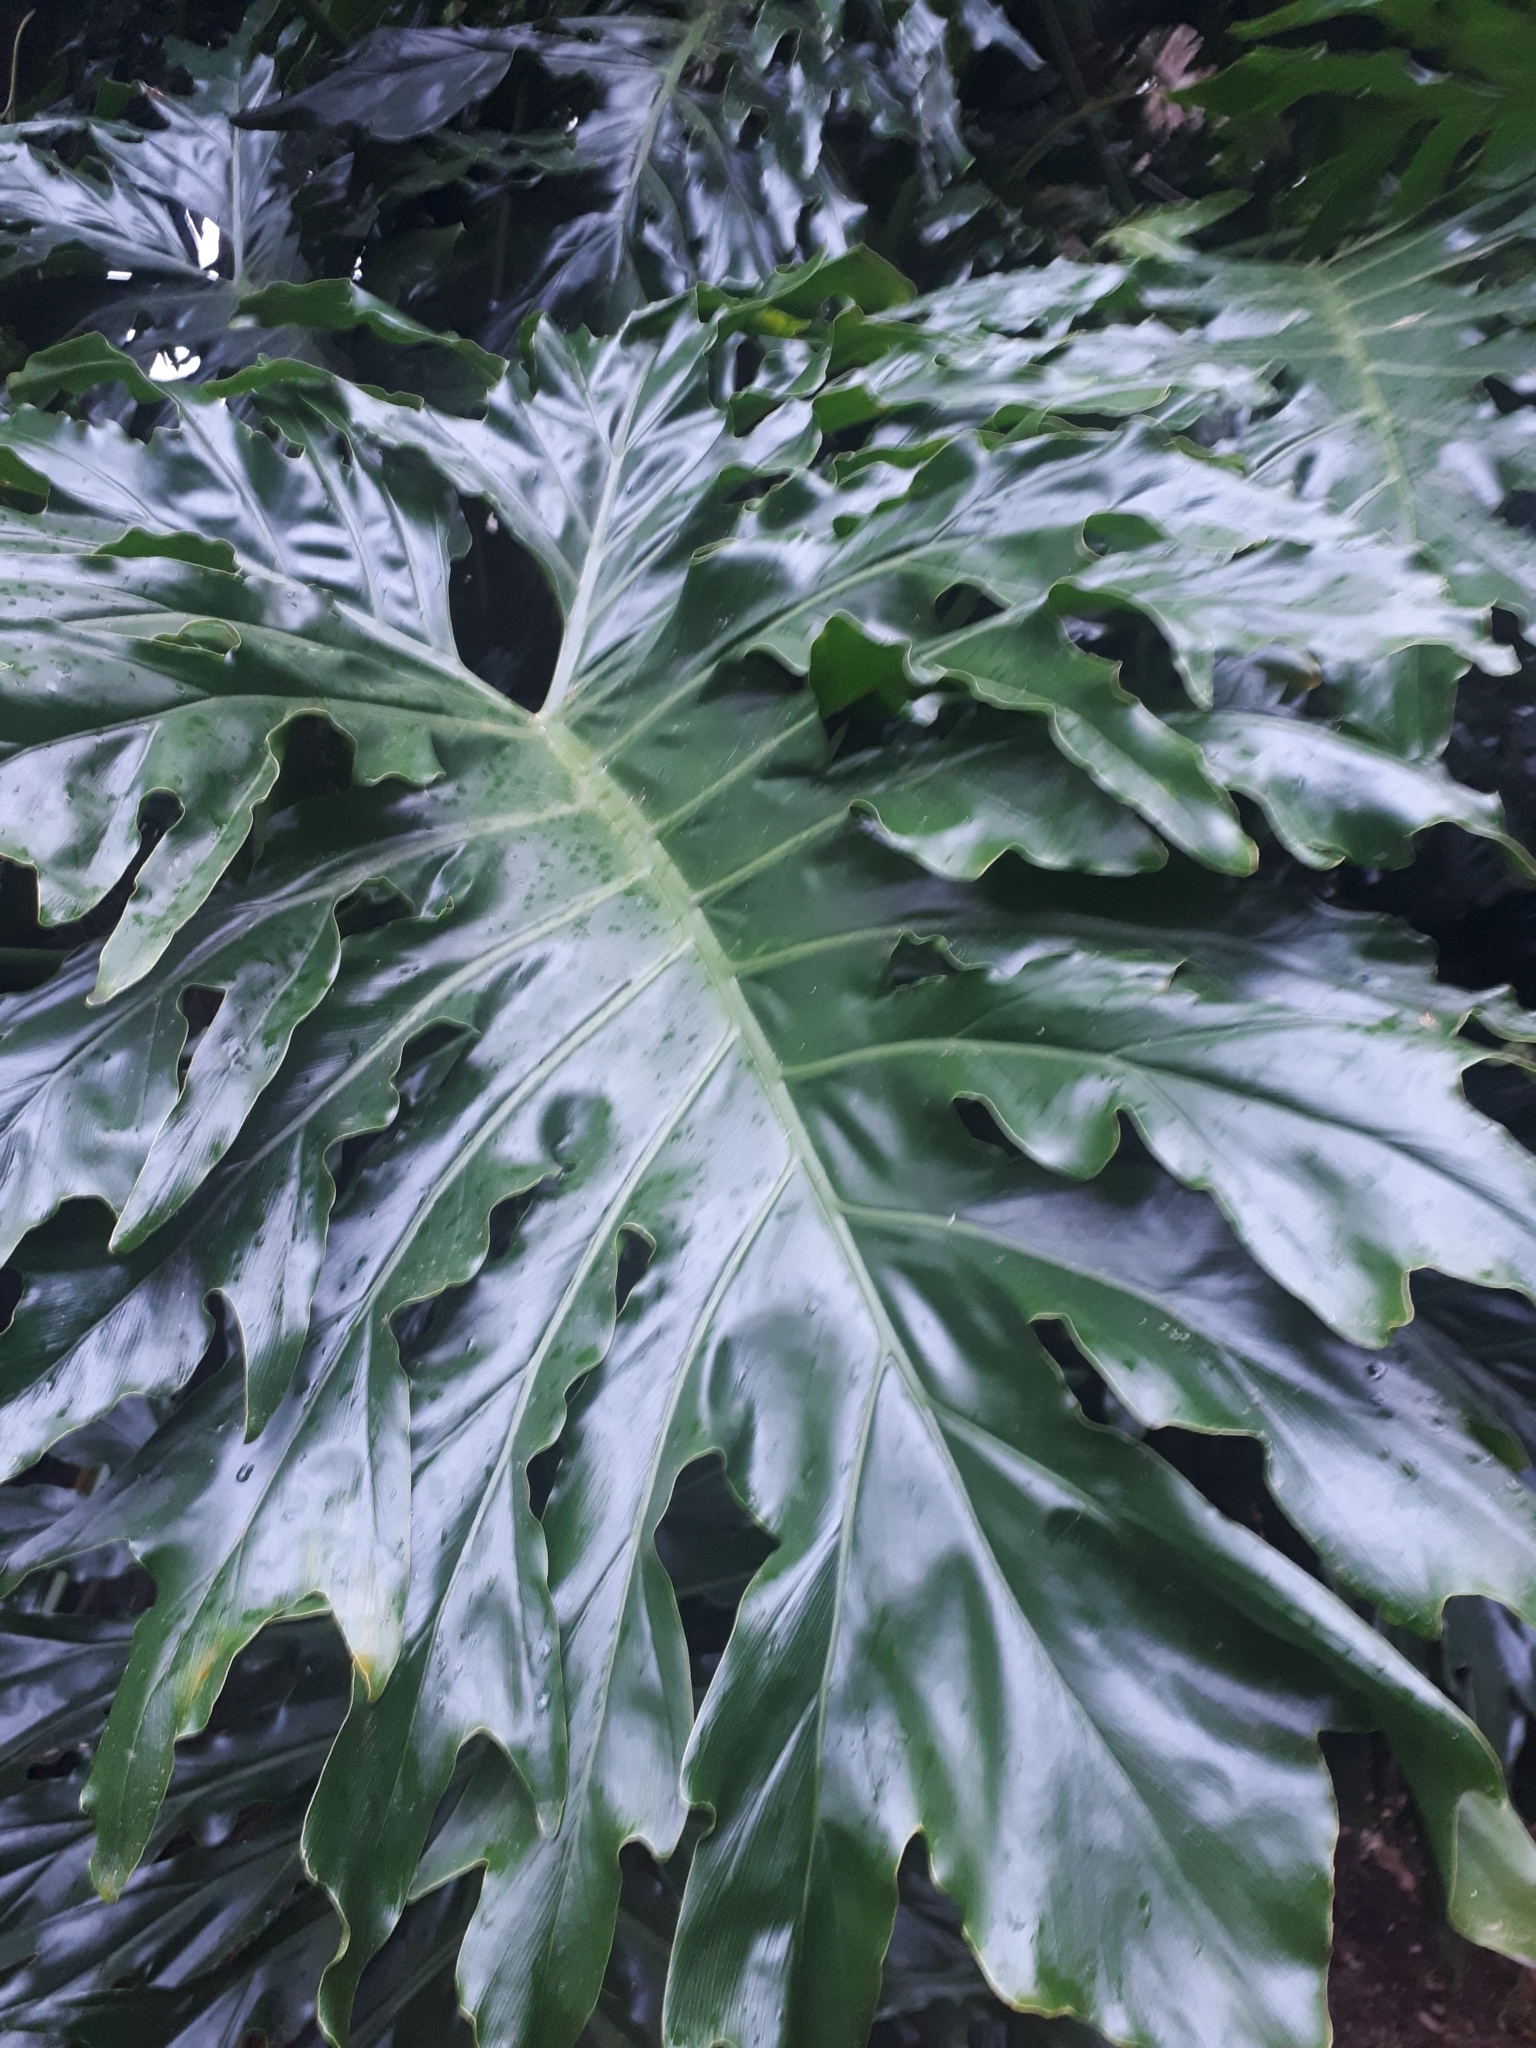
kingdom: Plantae
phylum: Tracheophyta
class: Liliopsida
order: Alismatales
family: Araceae
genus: Thaumatophyllum
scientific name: Thaumatophyllum bipinnatifidum
